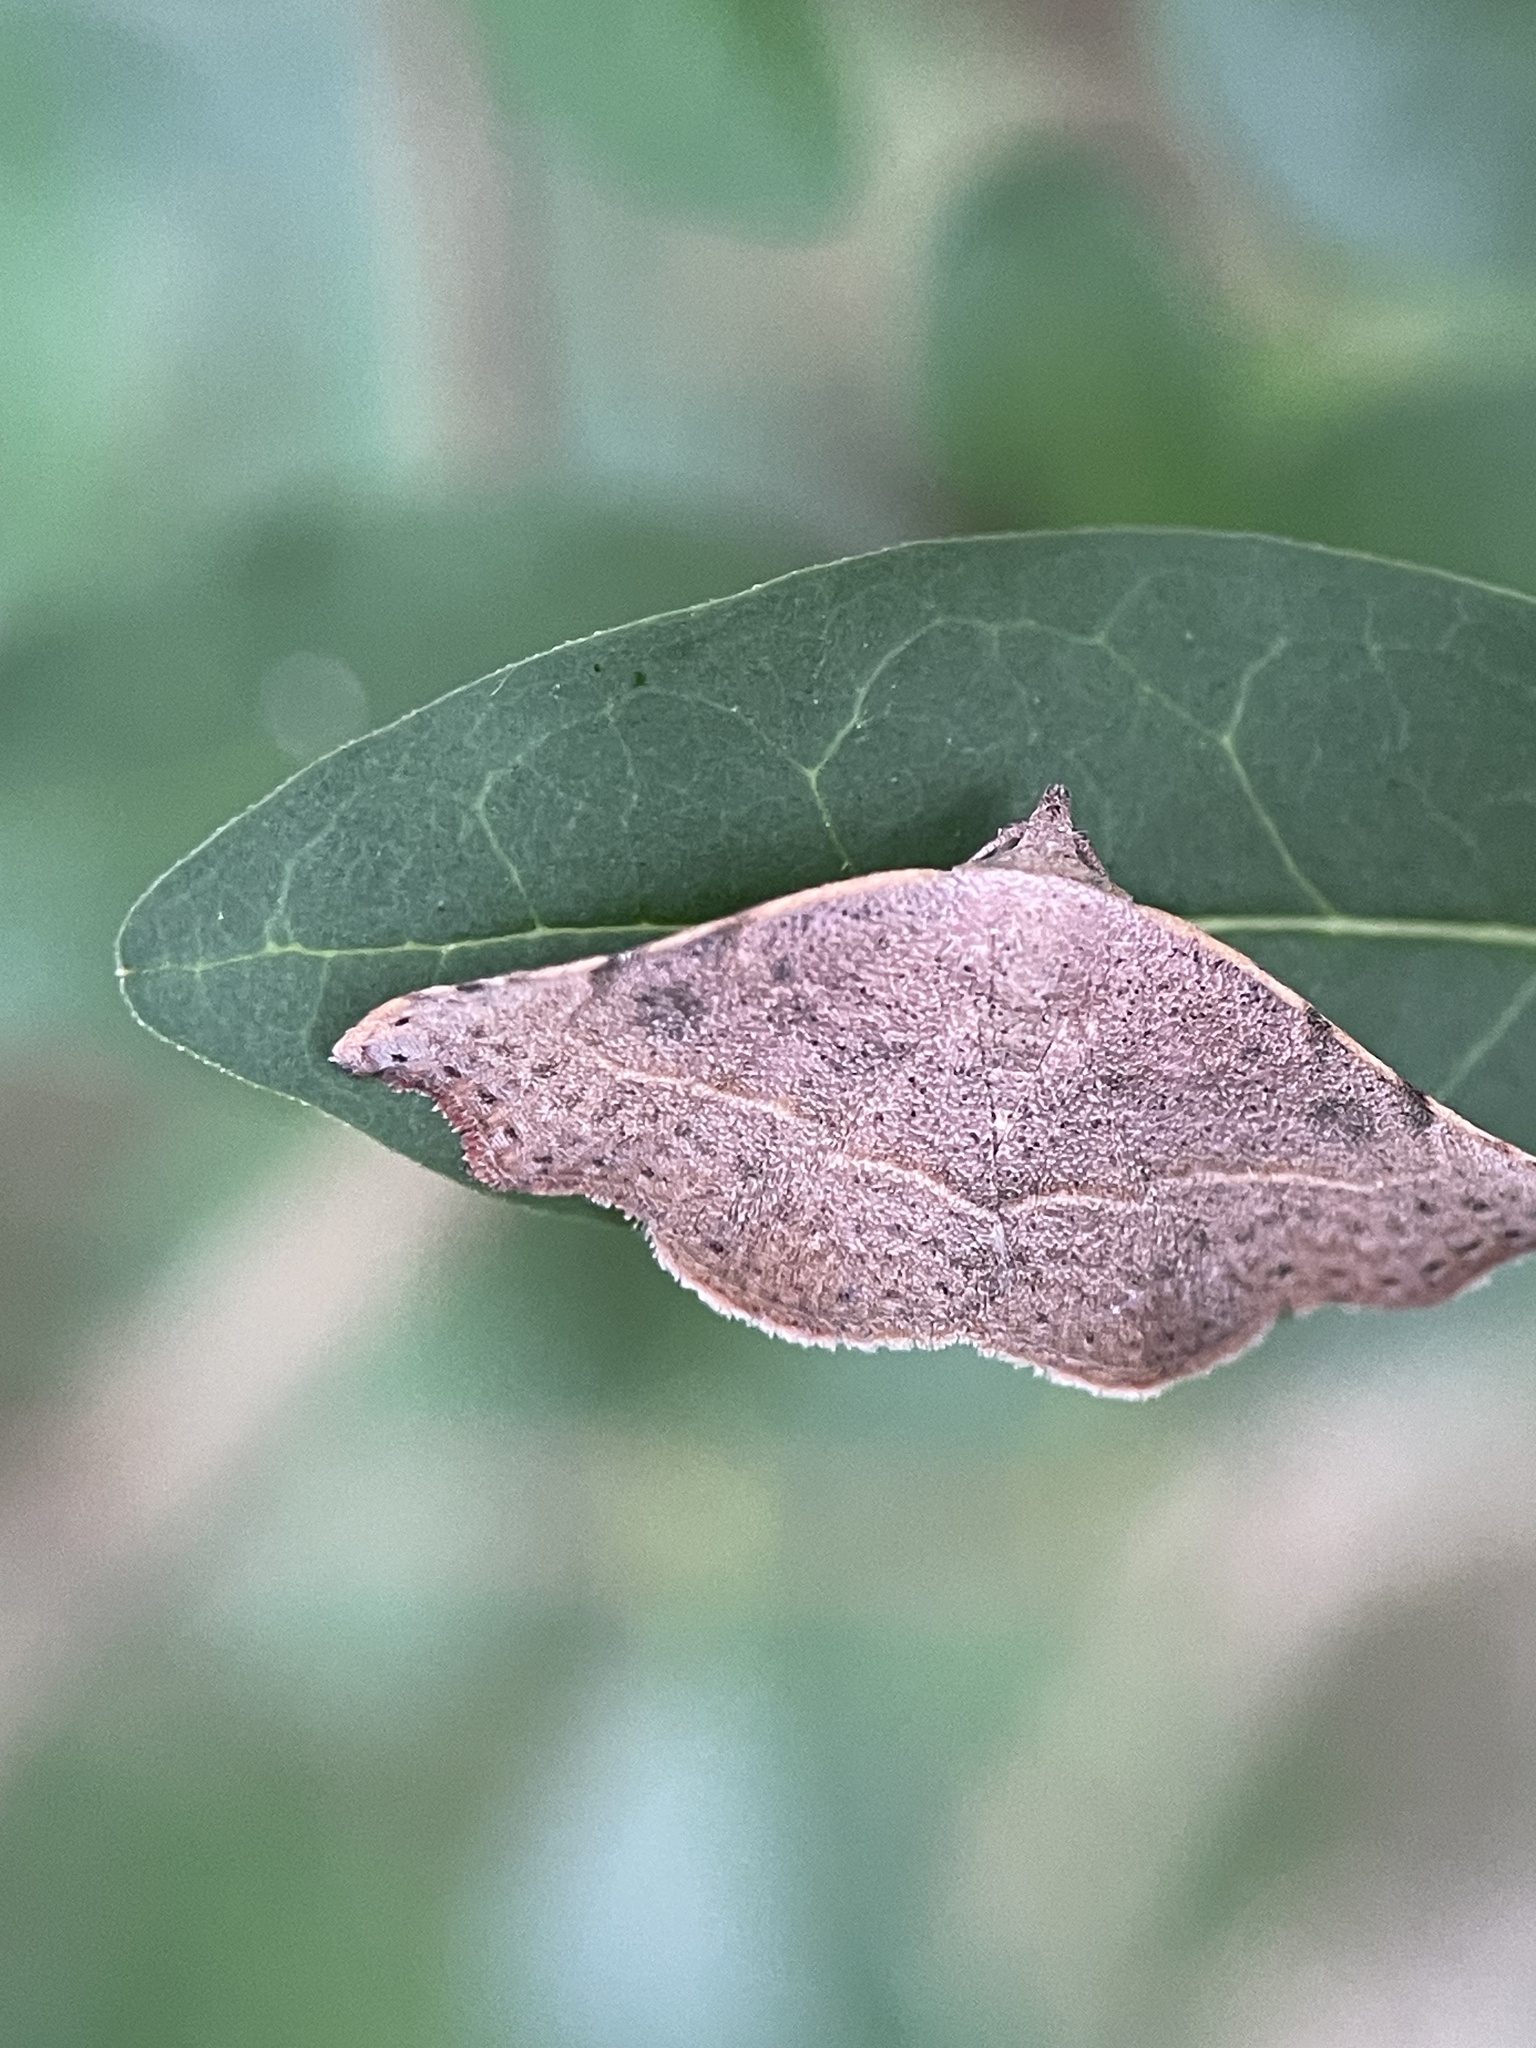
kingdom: Animalia
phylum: Arthropoda
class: Insecta
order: Lepidoptera
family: Erebidae
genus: Laspeyria
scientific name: Laspeyria concavata
